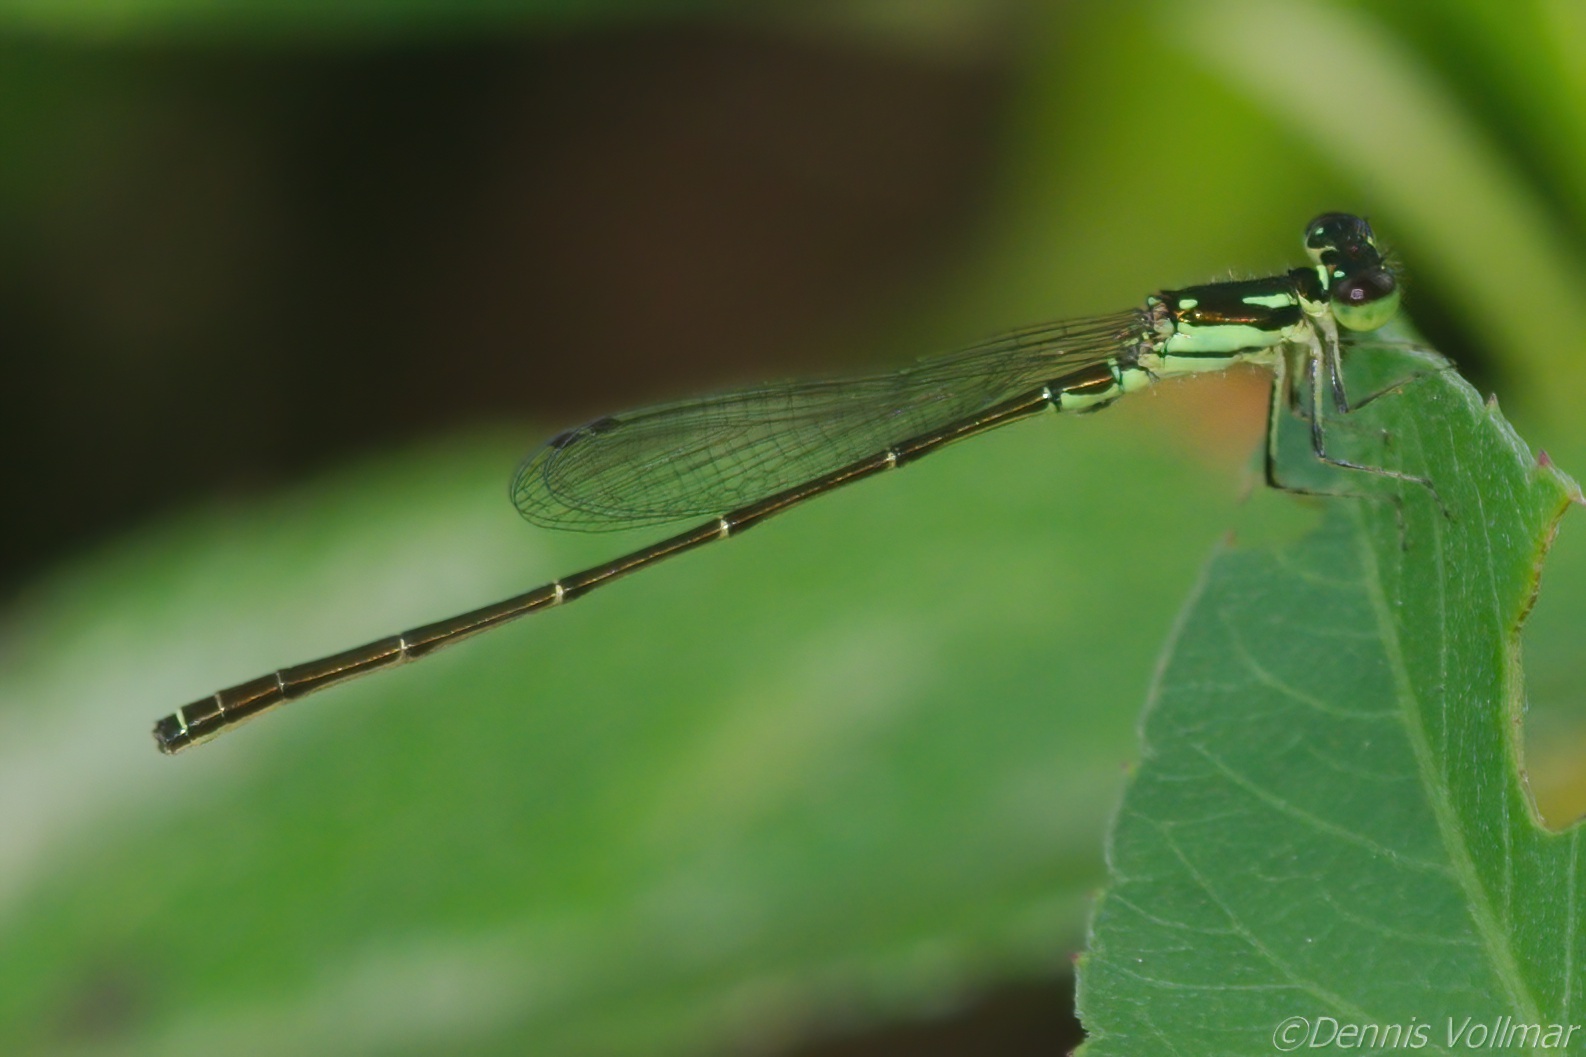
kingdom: Animalia
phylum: Arthropoda
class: Insecta
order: Odonata
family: Coenagrionidae
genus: Ischnura
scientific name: Ischnura posita
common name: Fragile forktail
